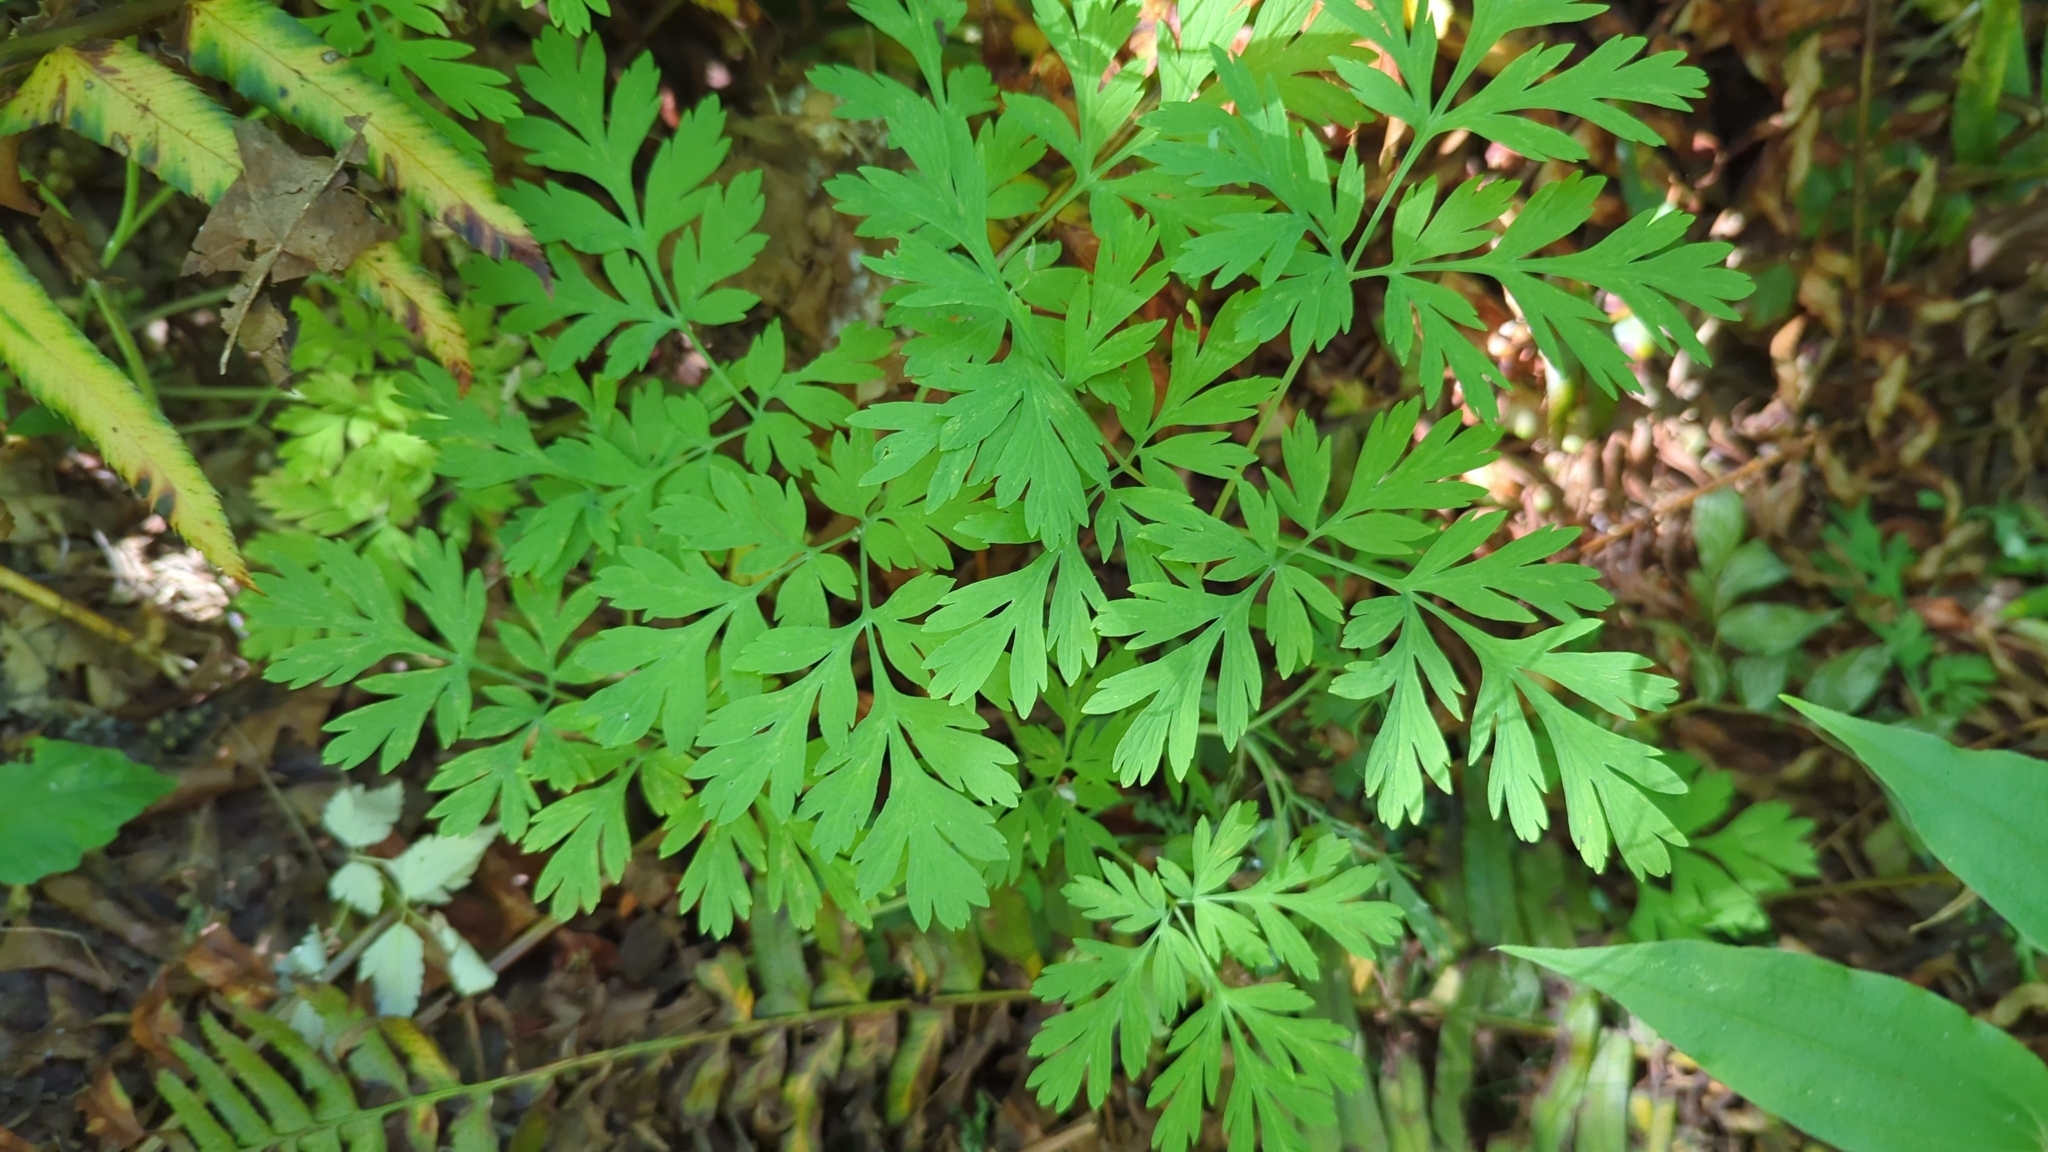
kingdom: Plantae
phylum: Tracheophyta
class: Magnoliopsida
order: Ranunculales
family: Papaveraceae
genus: Dicentra
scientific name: Dicentra formosa
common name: Bleeding-heart
